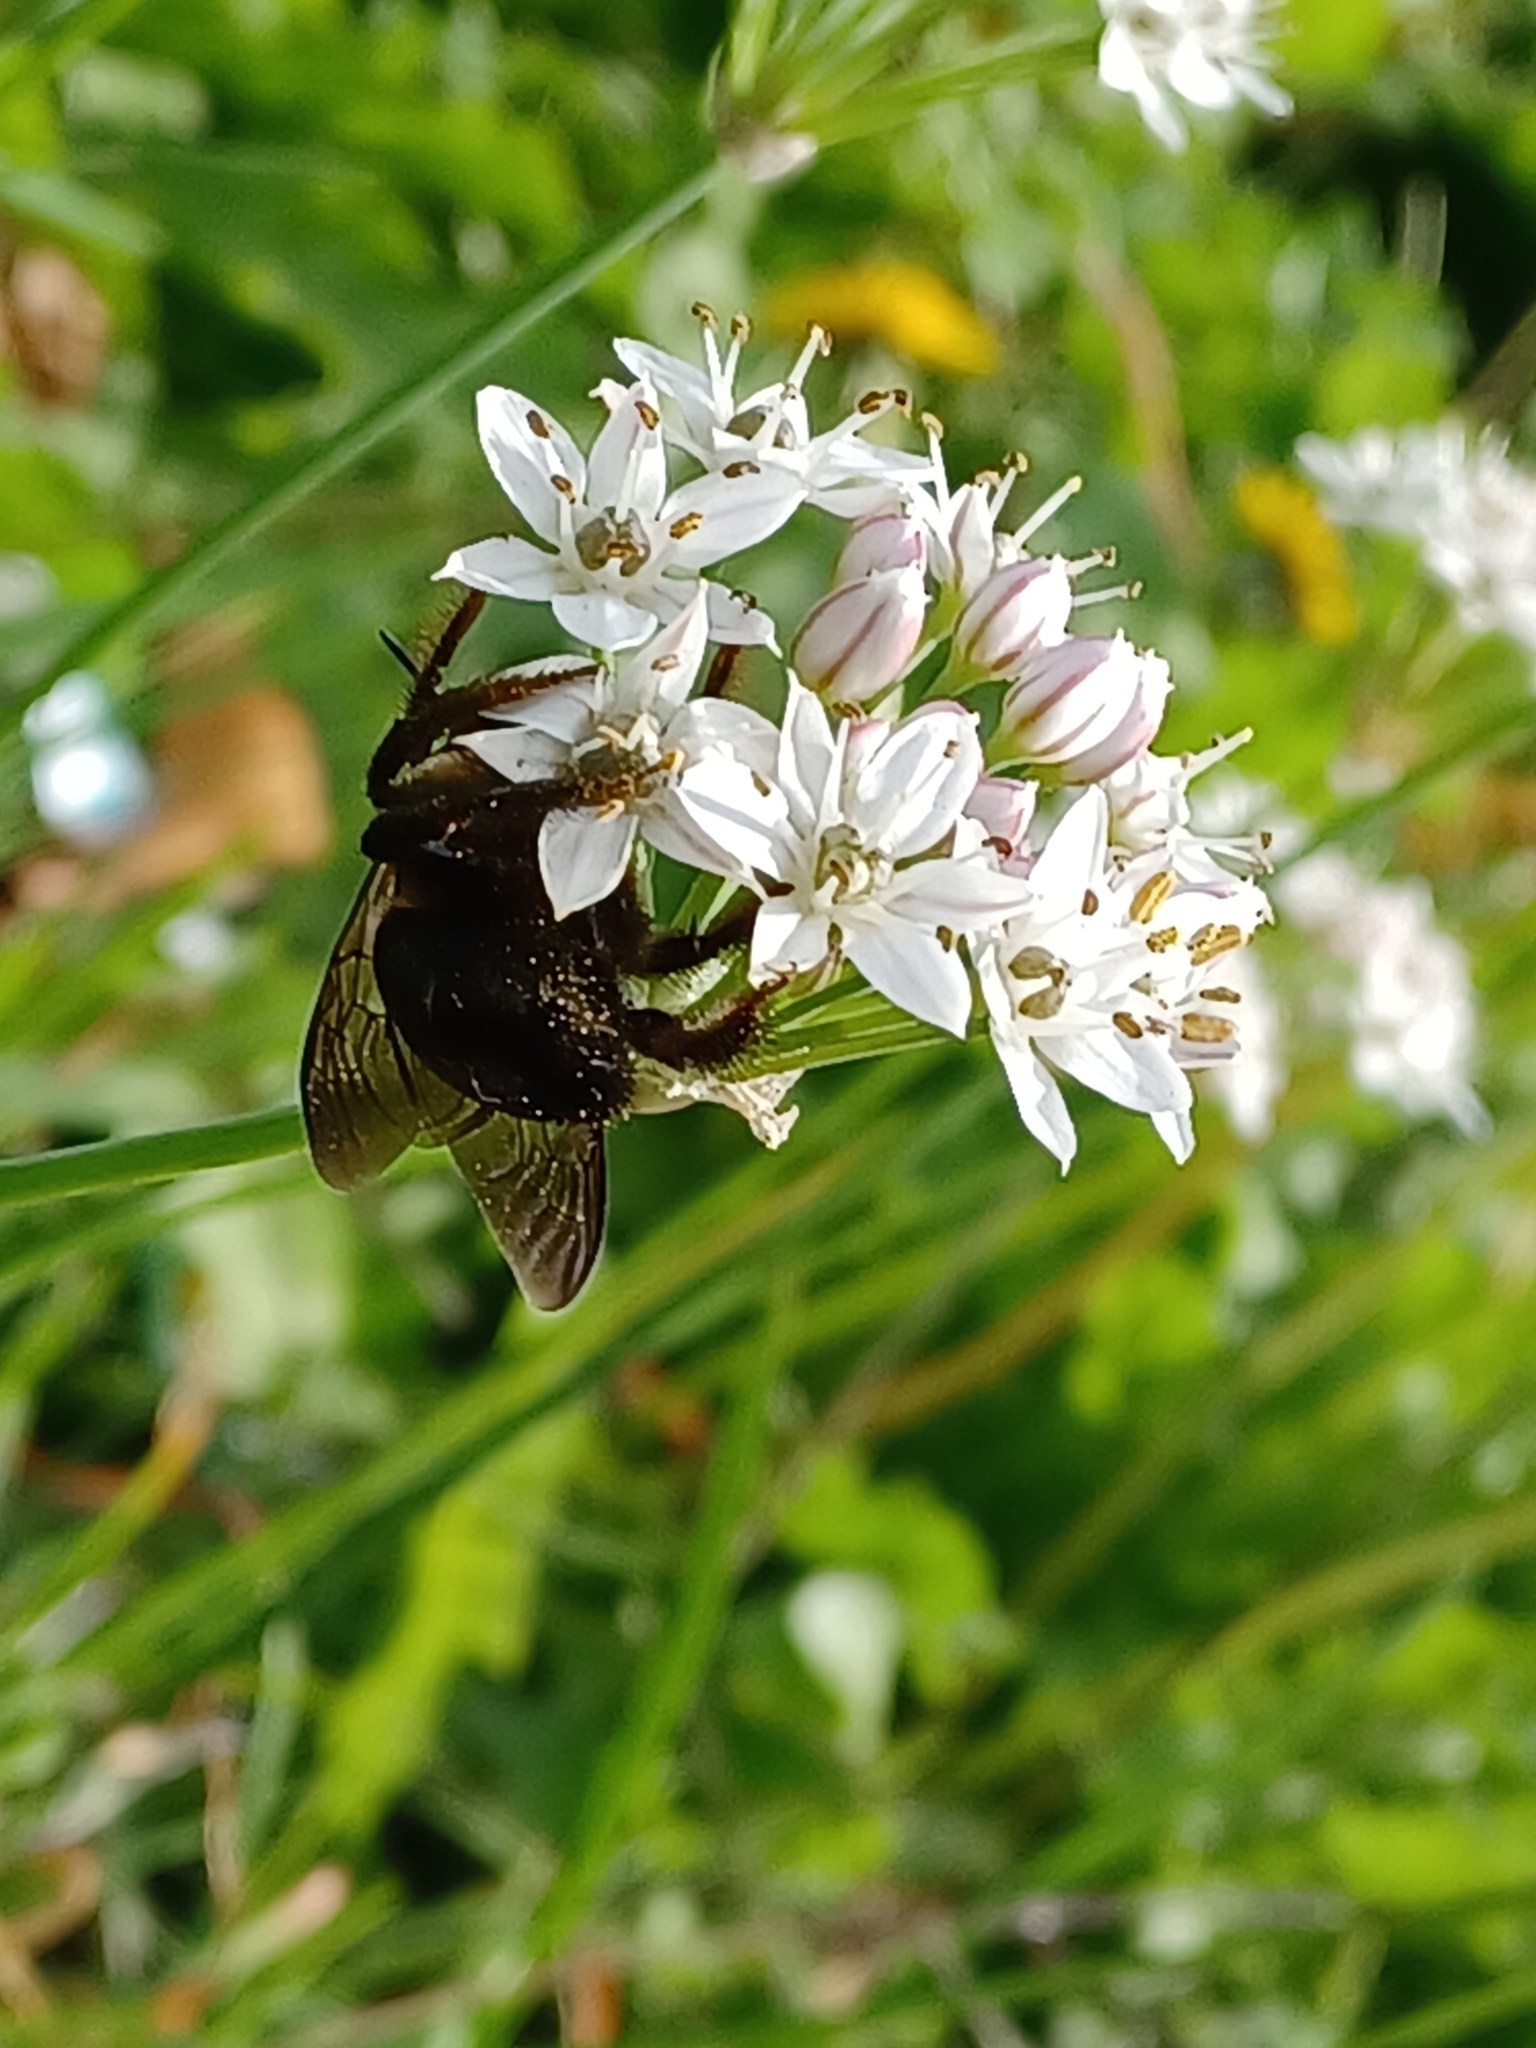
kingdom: Animalia
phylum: Arthropoda
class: Insecta
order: Hymenoptera
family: Apidae
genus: Xylocopa
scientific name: Xylocopa virginica
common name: Carpenter bee
